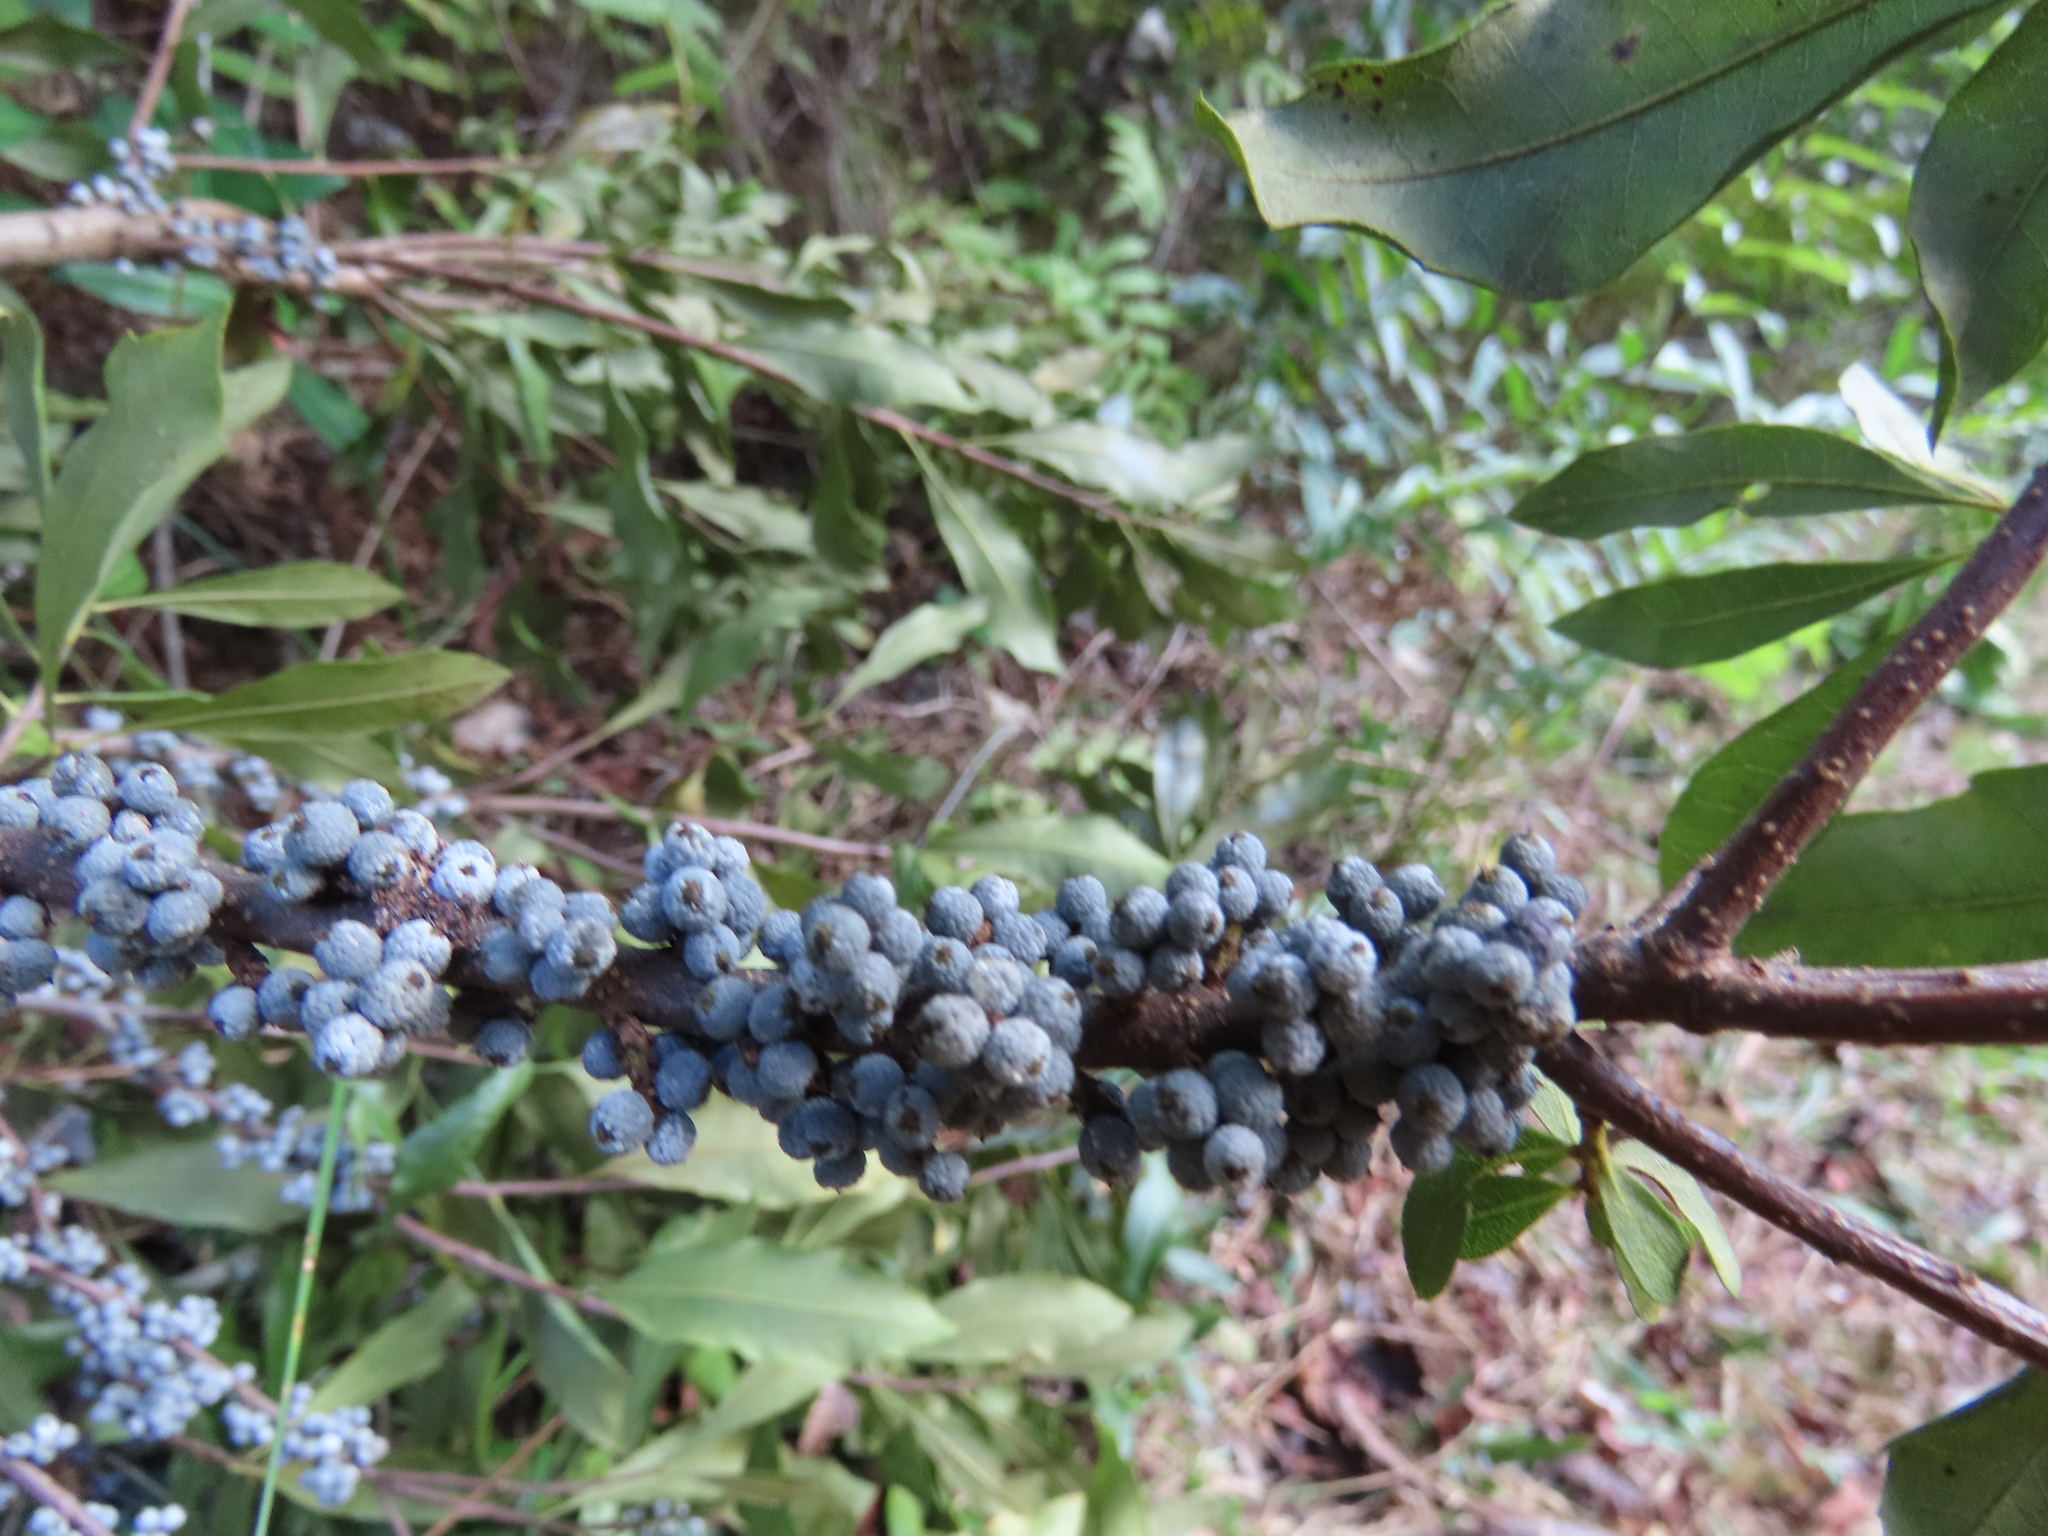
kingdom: Plantae
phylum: Tracheophyta
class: Magnoliopsida
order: Fagales
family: Myricaceae
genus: Morella
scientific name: Morella cerifera
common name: Wax myrtle
